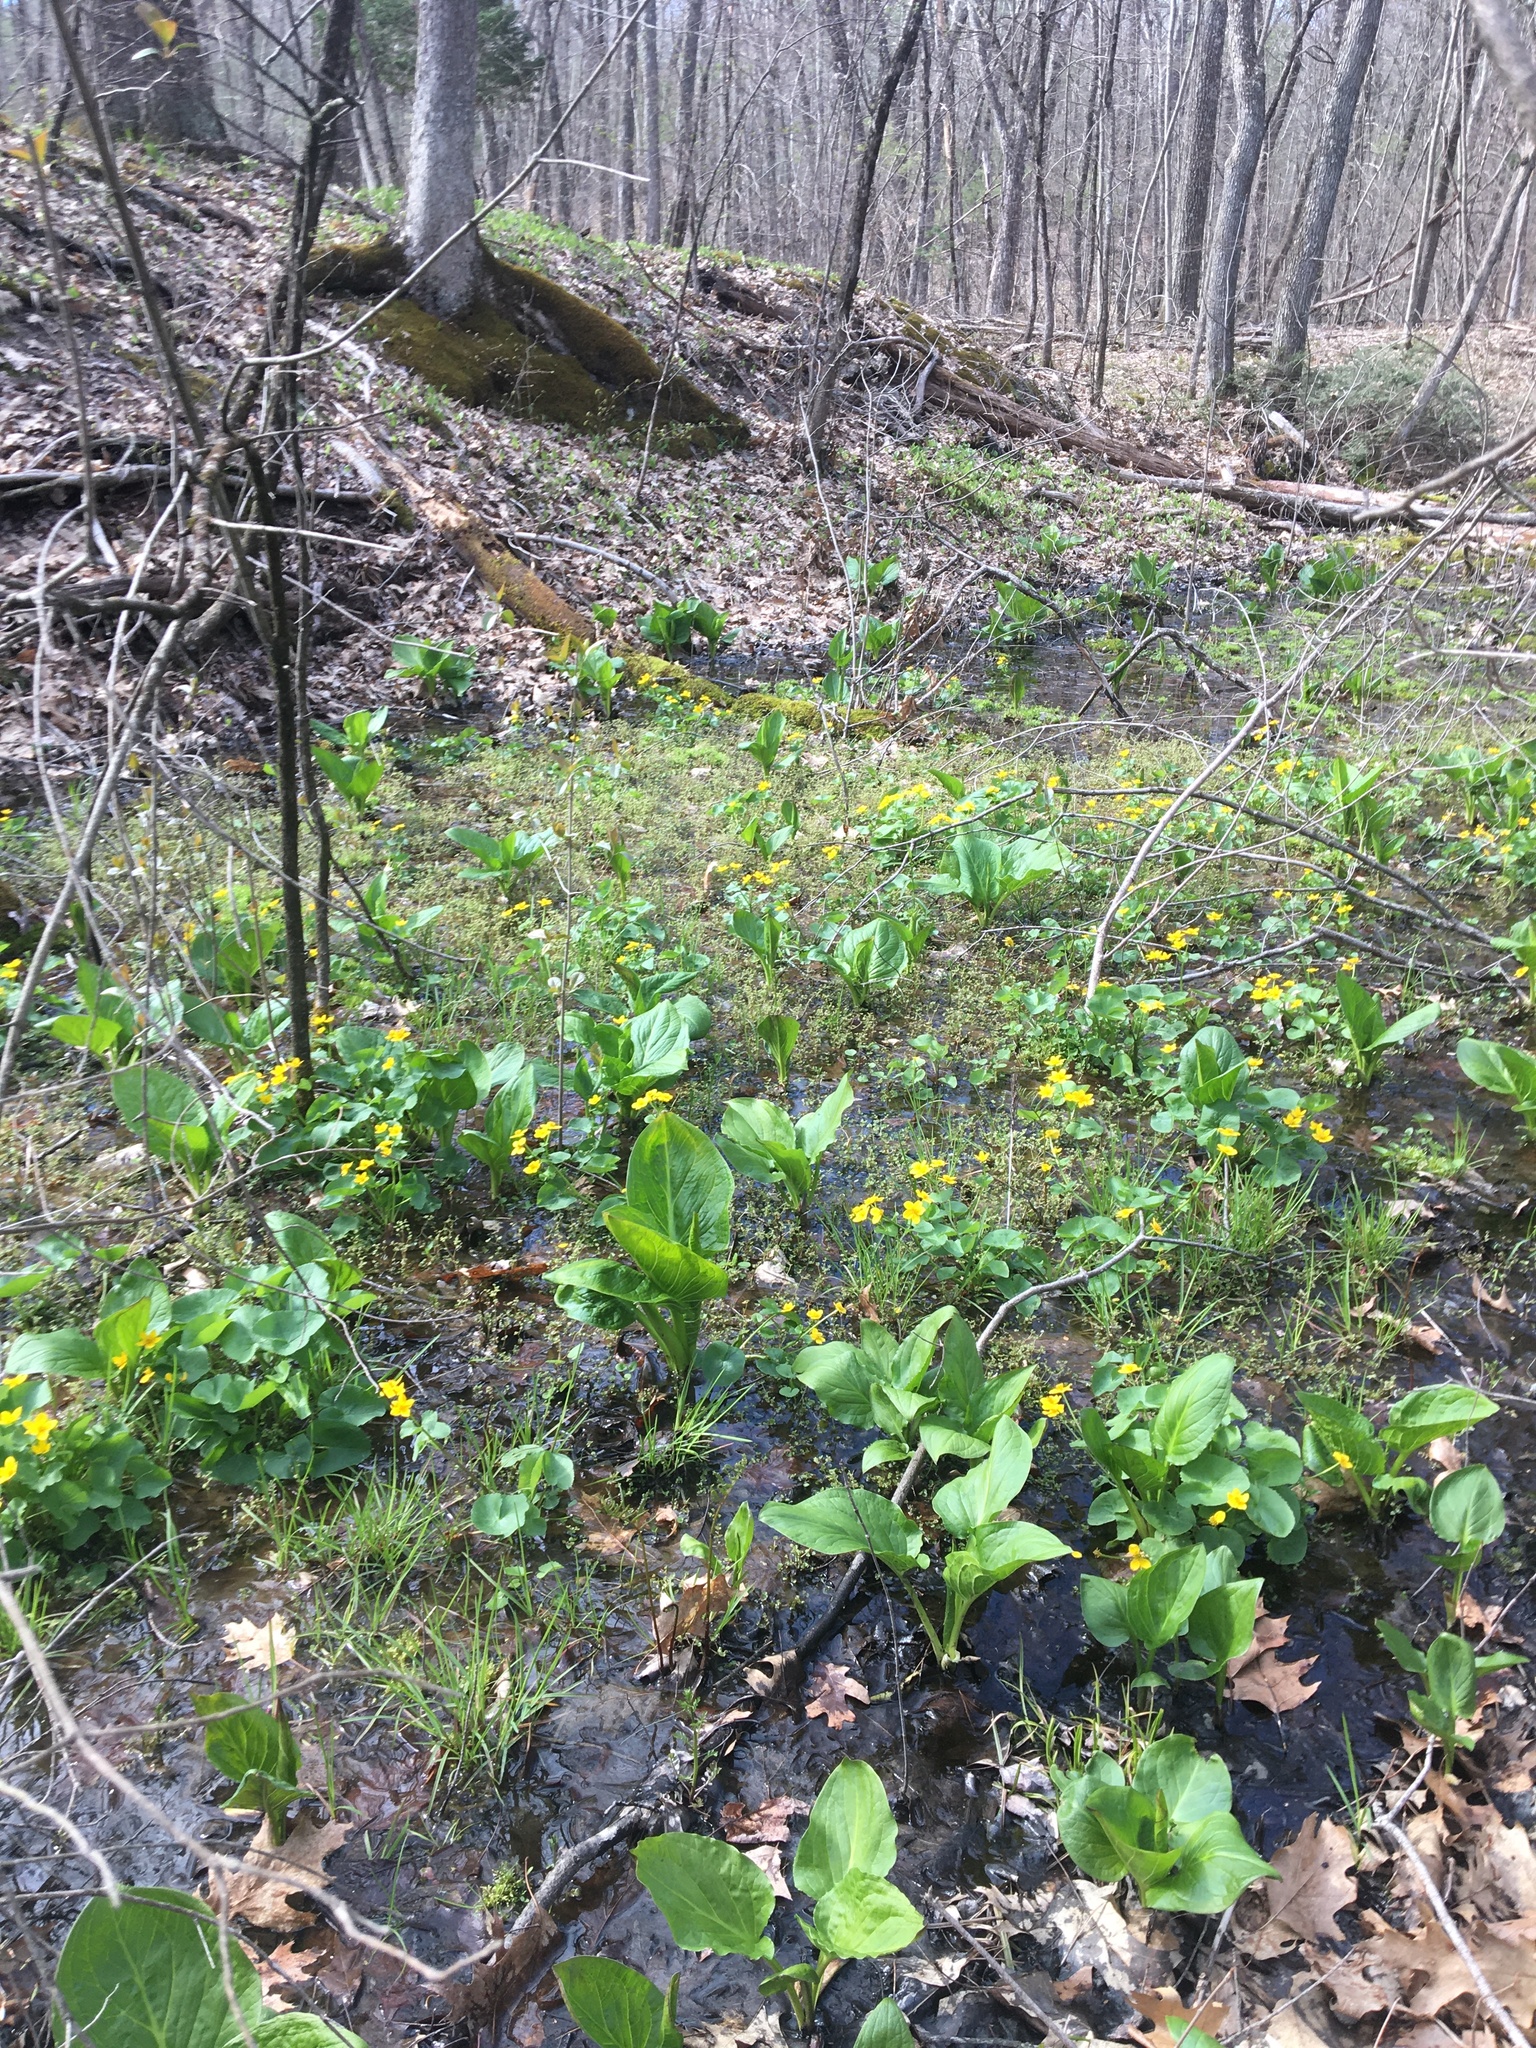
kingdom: Plantae
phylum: Tracheophyta
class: Magnoliopsida
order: Ranunculales
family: Ranunculaceae
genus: Caltha
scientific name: Caltha palustris
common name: Marsh marigold
